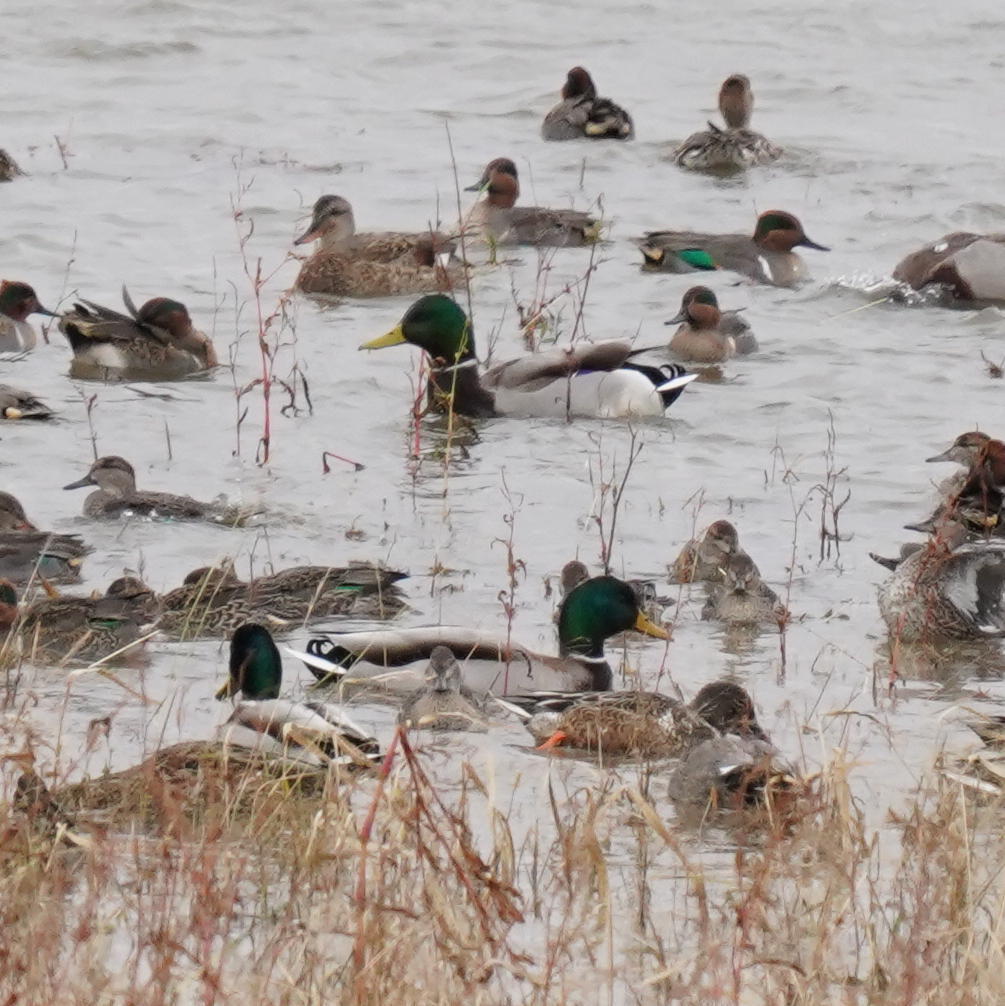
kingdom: Animalia
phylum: Chordata
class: Aves
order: Anseriformes
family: Anatidae
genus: Anas
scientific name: Anas platyrhynchos
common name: Mallard
